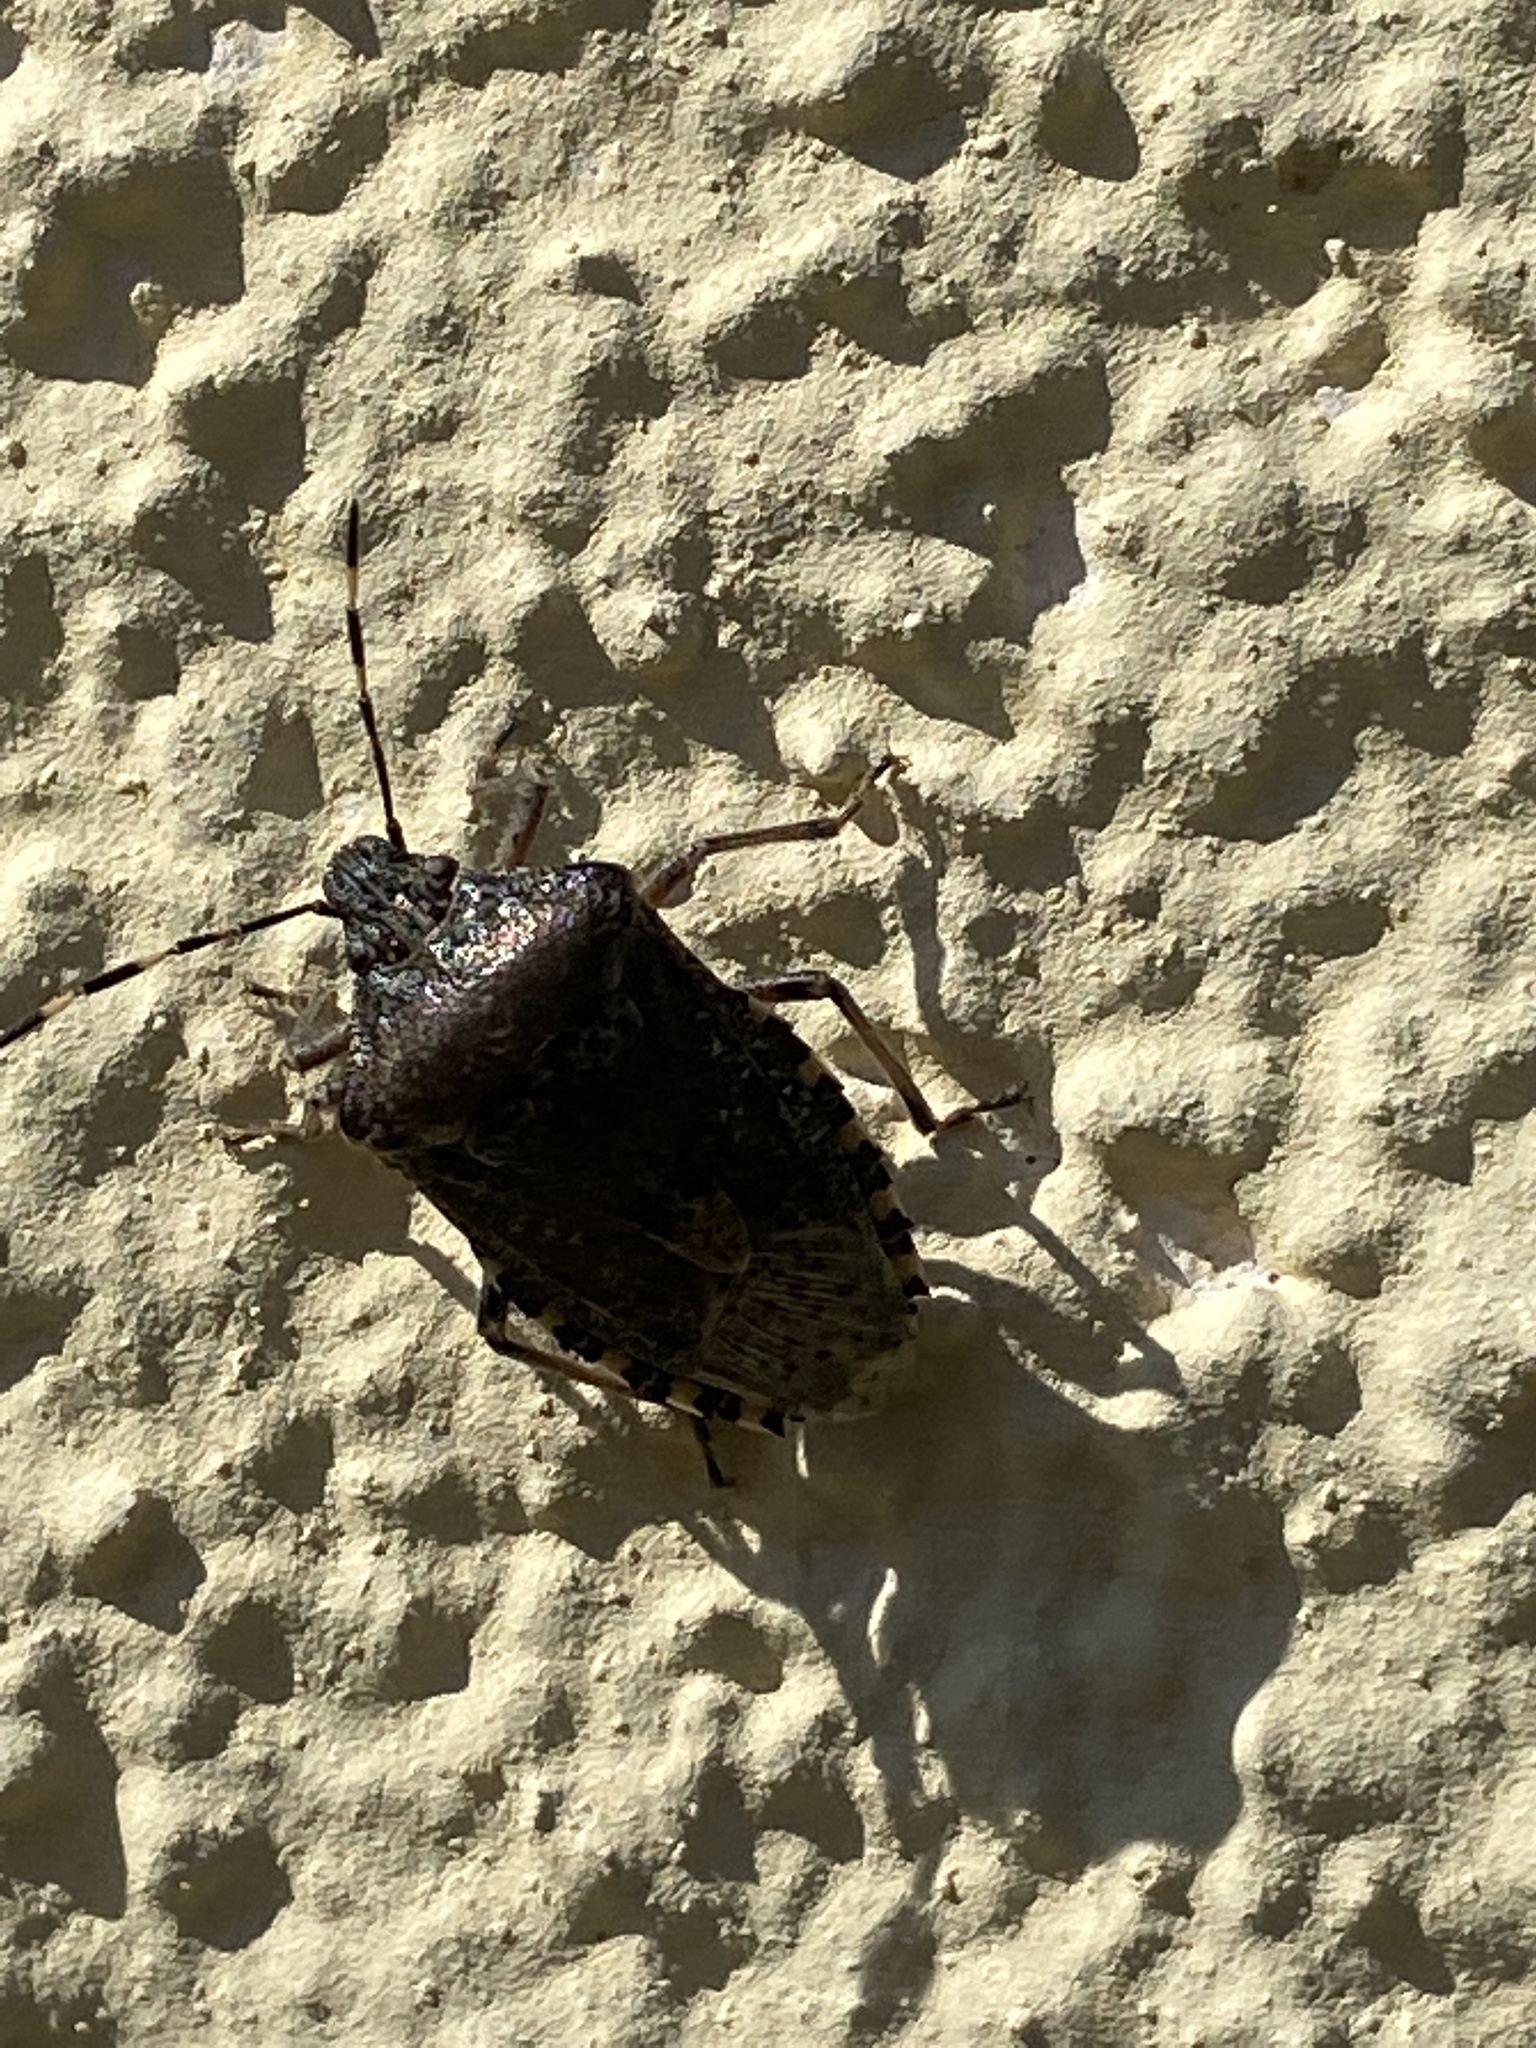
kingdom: Animalia
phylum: Arthropoda
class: Insecta
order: Hemiptera
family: Pentatomidae
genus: Rhaphigaster
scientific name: Rhaphigaster nebulosa
